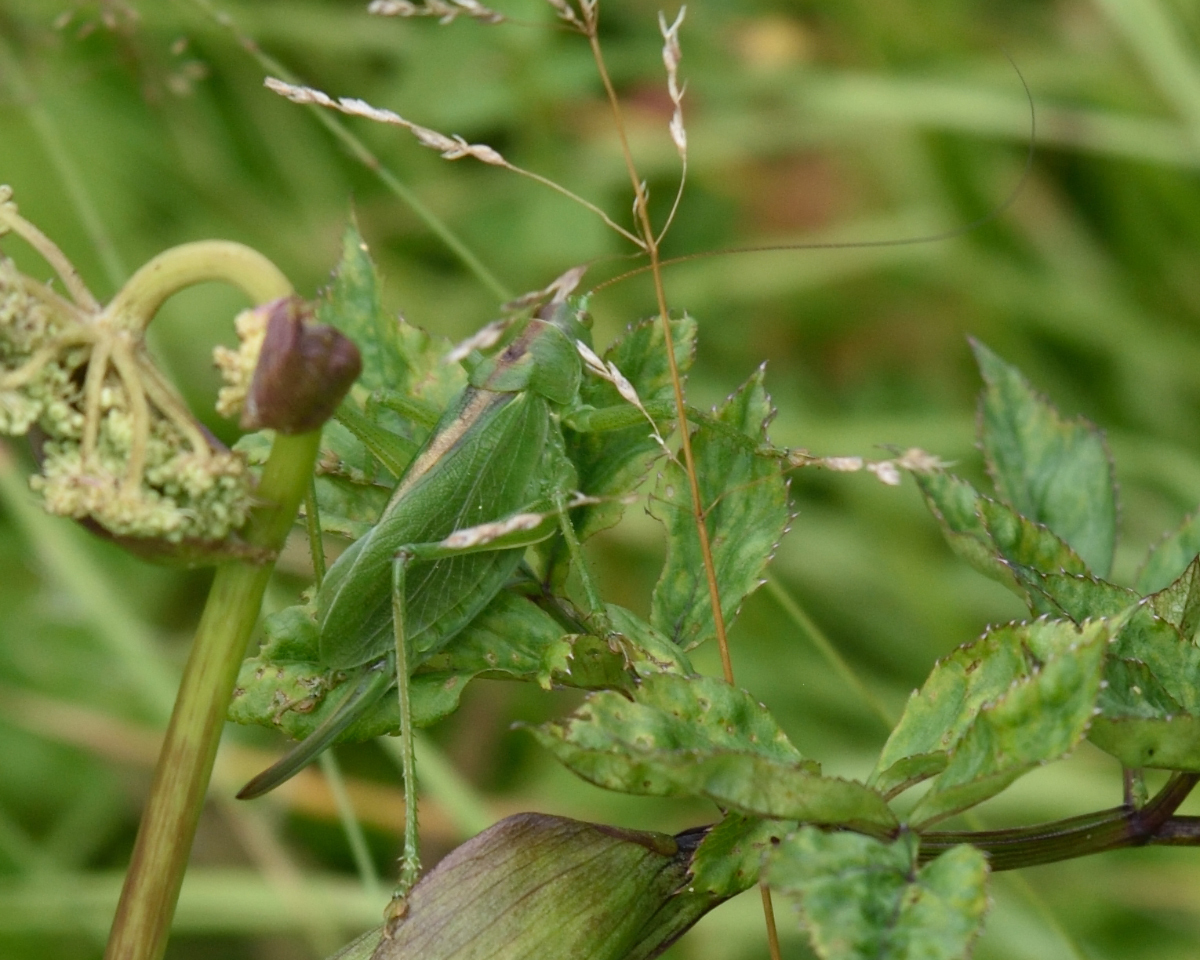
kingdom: Animalia
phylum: Arthropoda
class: Insecta
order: Orthoptera
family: Tettigoniidae
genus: Tettigonia
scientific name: Tettigonia cantans
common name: Upland green bush-cricket
